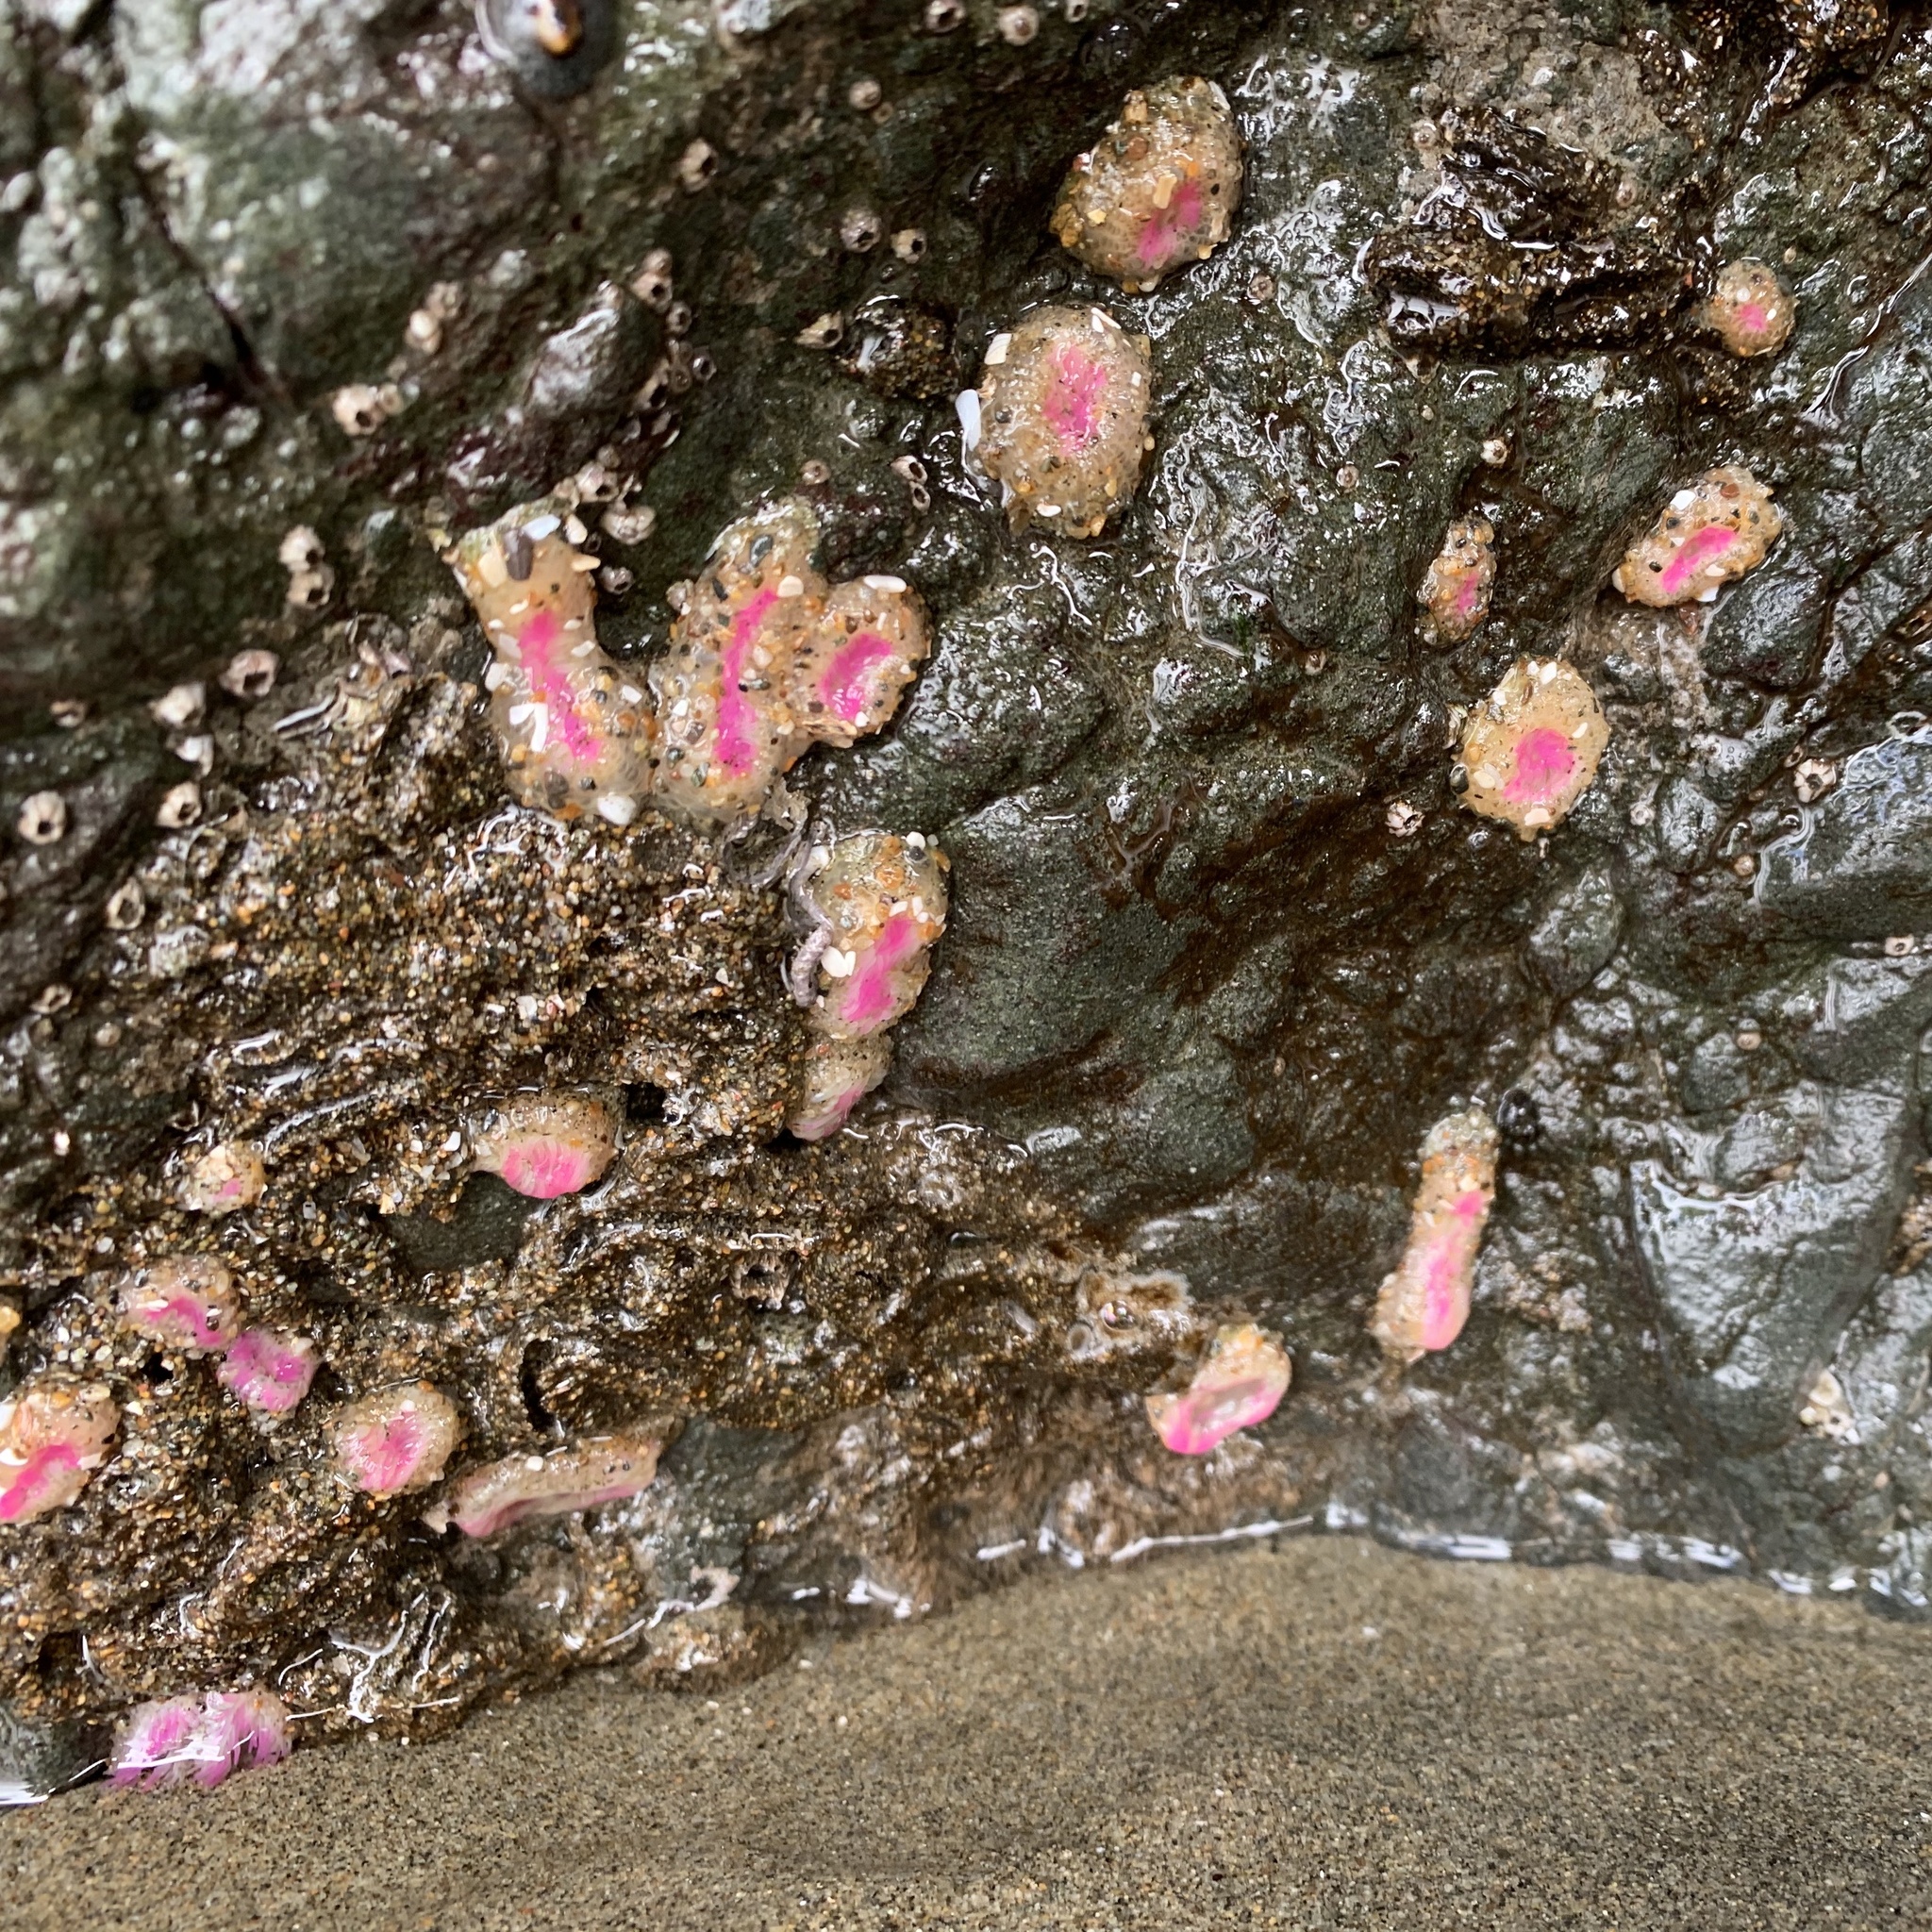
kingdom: Animalia
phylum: Cnidaria
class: Anthozoa
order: Actiniaria
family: Actiniidae
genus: Anthopleura
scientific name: Anthopleura elegantissima
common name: Clonal anemone
